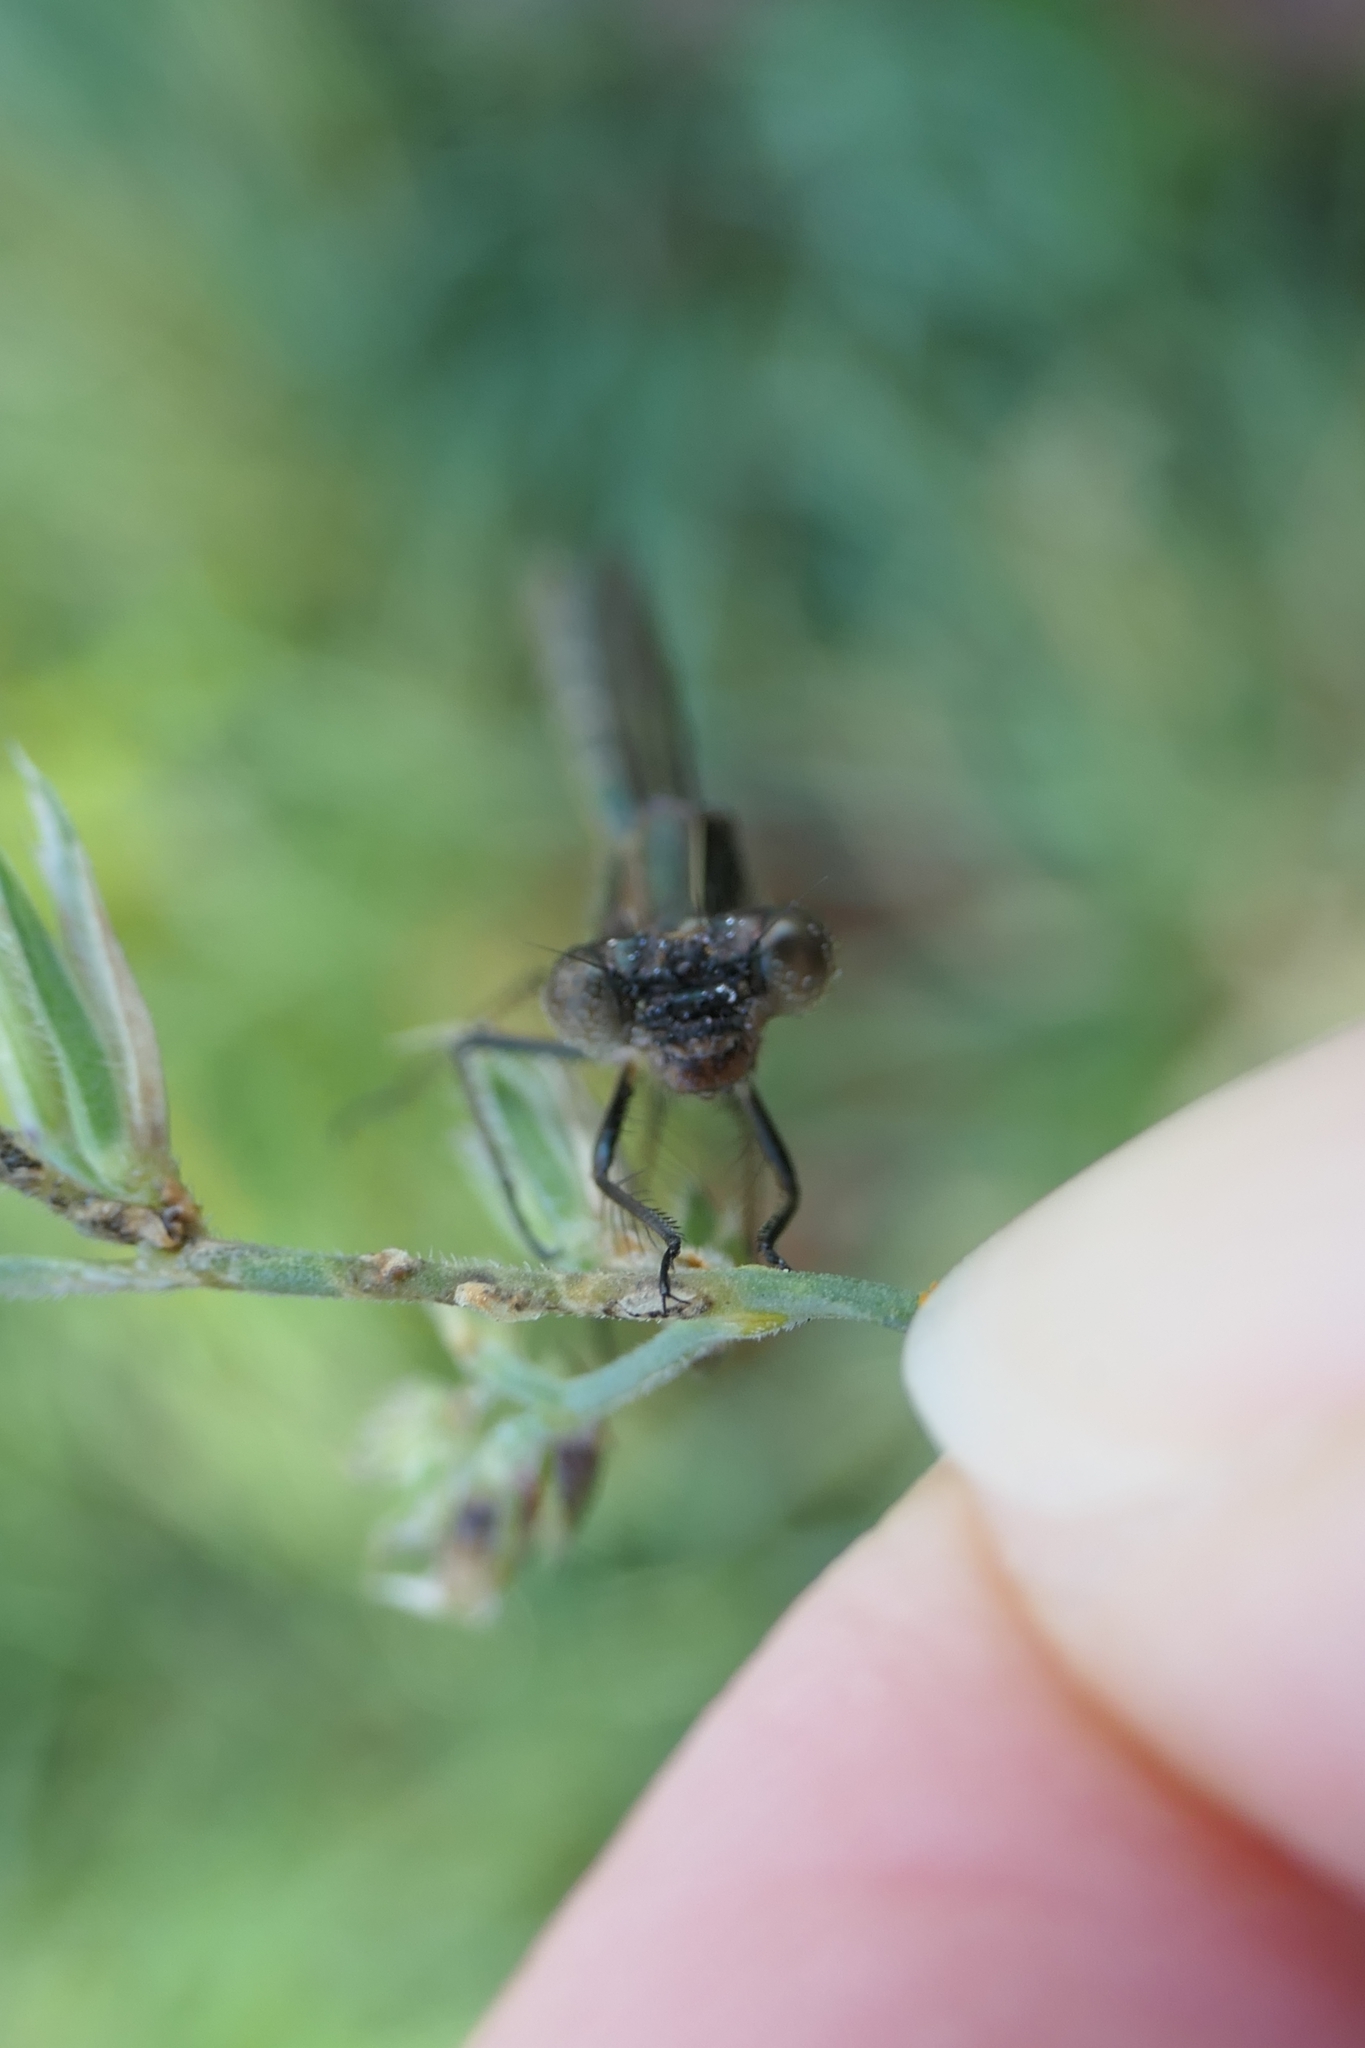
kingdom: Animalia
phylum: Arthropoda
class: Insecta
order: Odonata
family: Lestidae
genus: Austrolestes
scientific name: Austrolestes colensonis
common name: Blue damselfly
